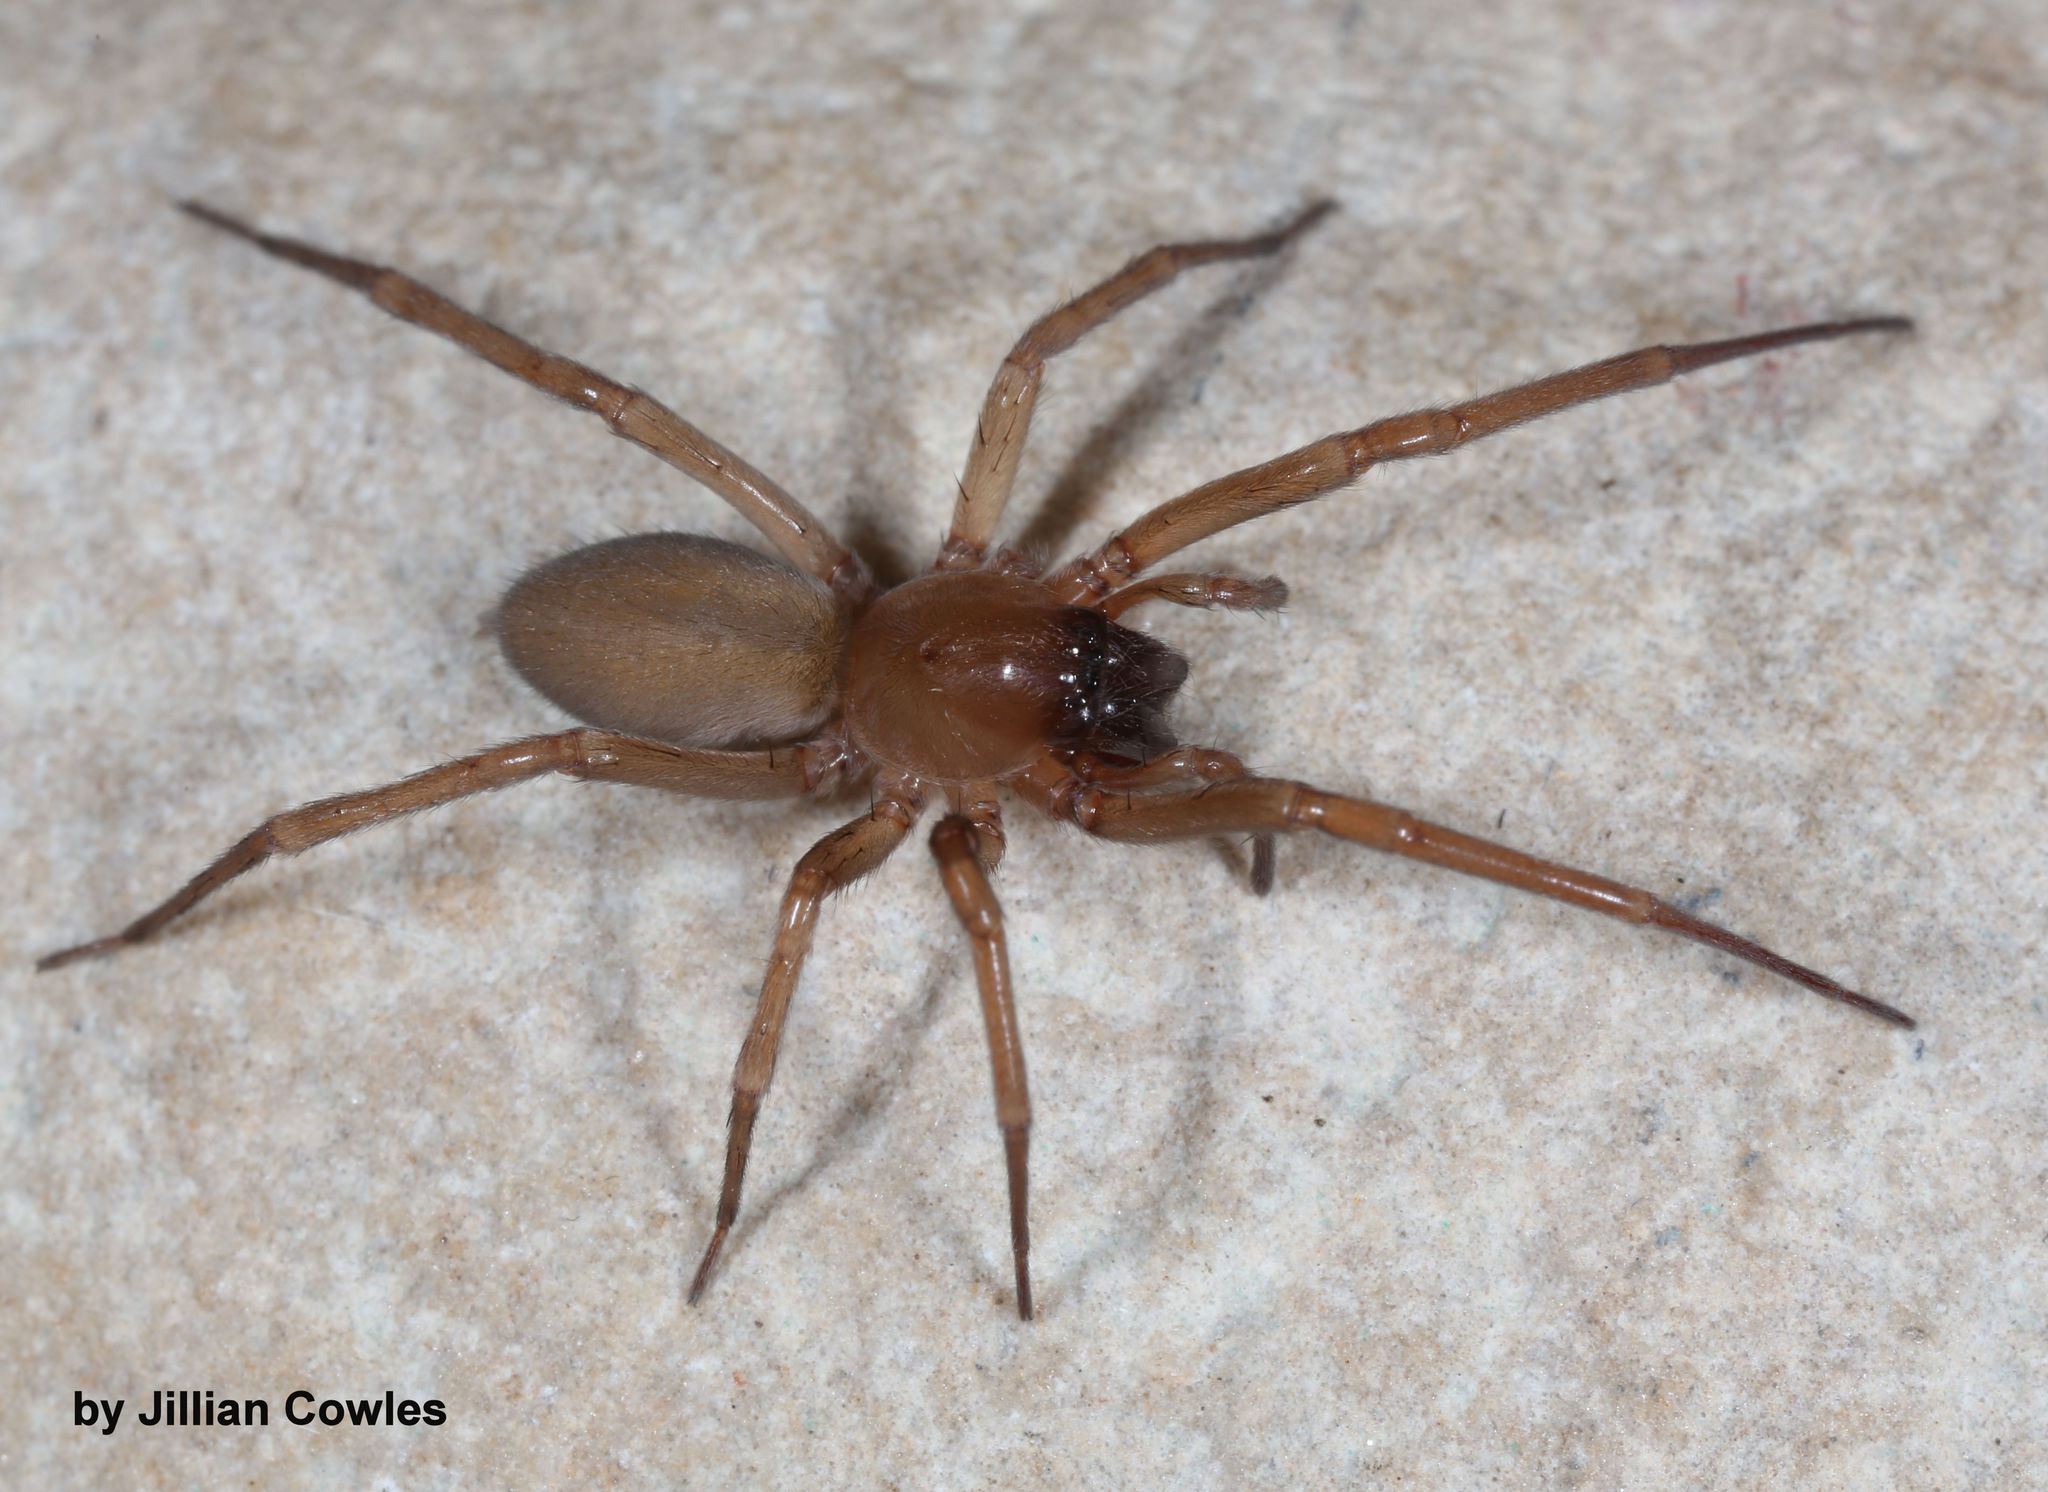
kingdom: Animalia
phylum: Arthropoda
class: Arachnida
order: Araneae
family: Cheiracanthiidae
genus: Strotarchus
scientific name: Strotarchus beepbeep
